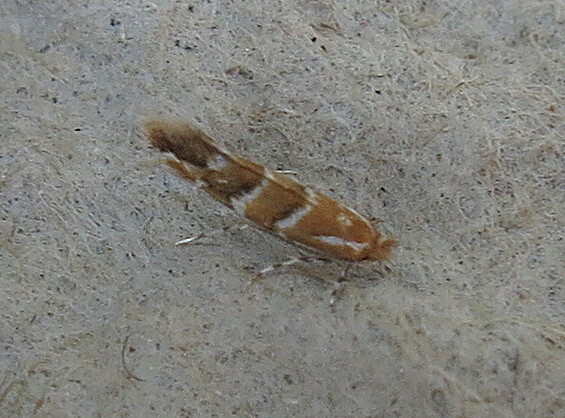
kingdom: Animalia
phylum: Arthropoda
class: Insecta
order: Lepidoptera
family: Gracillariidae
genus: Cameraria
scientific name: Cameraria ohridella
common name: Horse-chestnut leaf-miner
